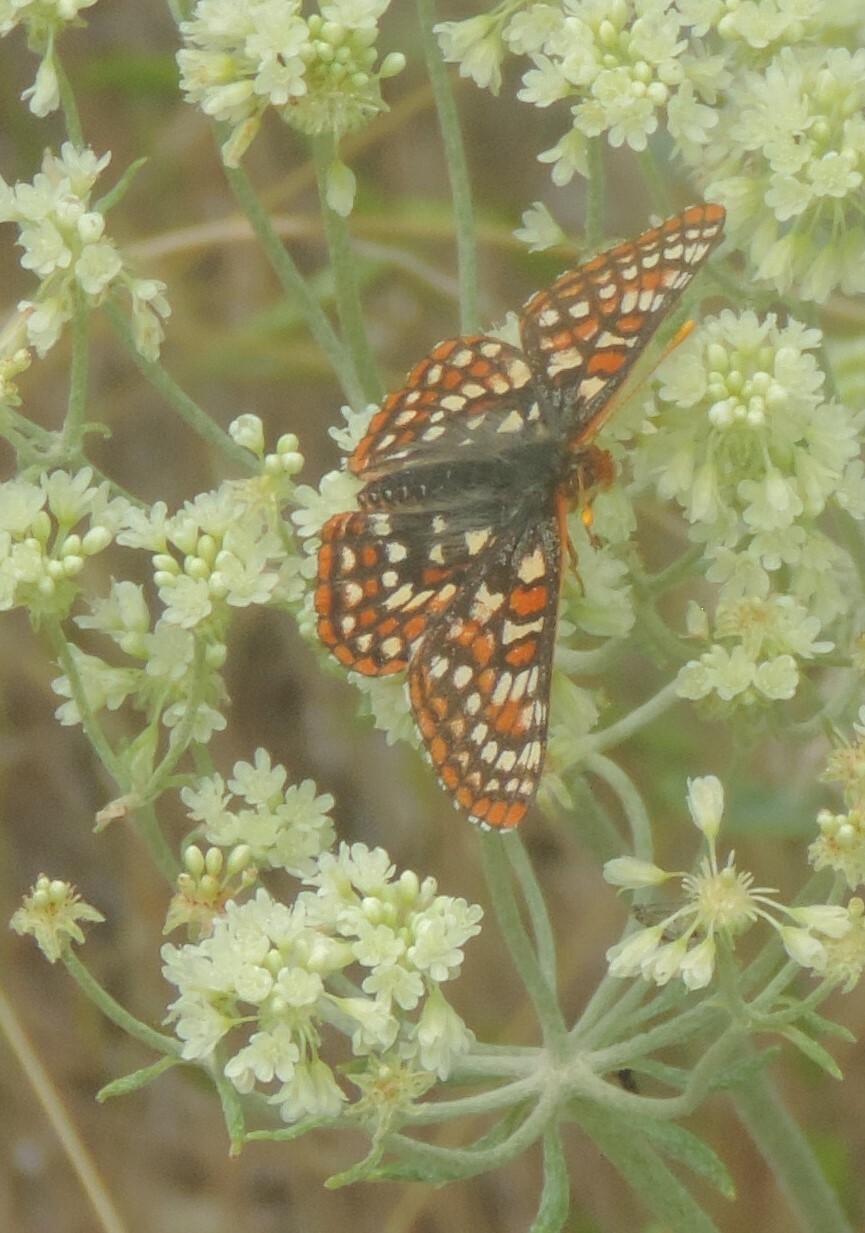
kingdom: Animalia
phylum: Arthropoda
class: Insecta
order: Lepidoptera
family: Nymphalidae
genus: Occidryas
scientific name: Occidryas anicia
